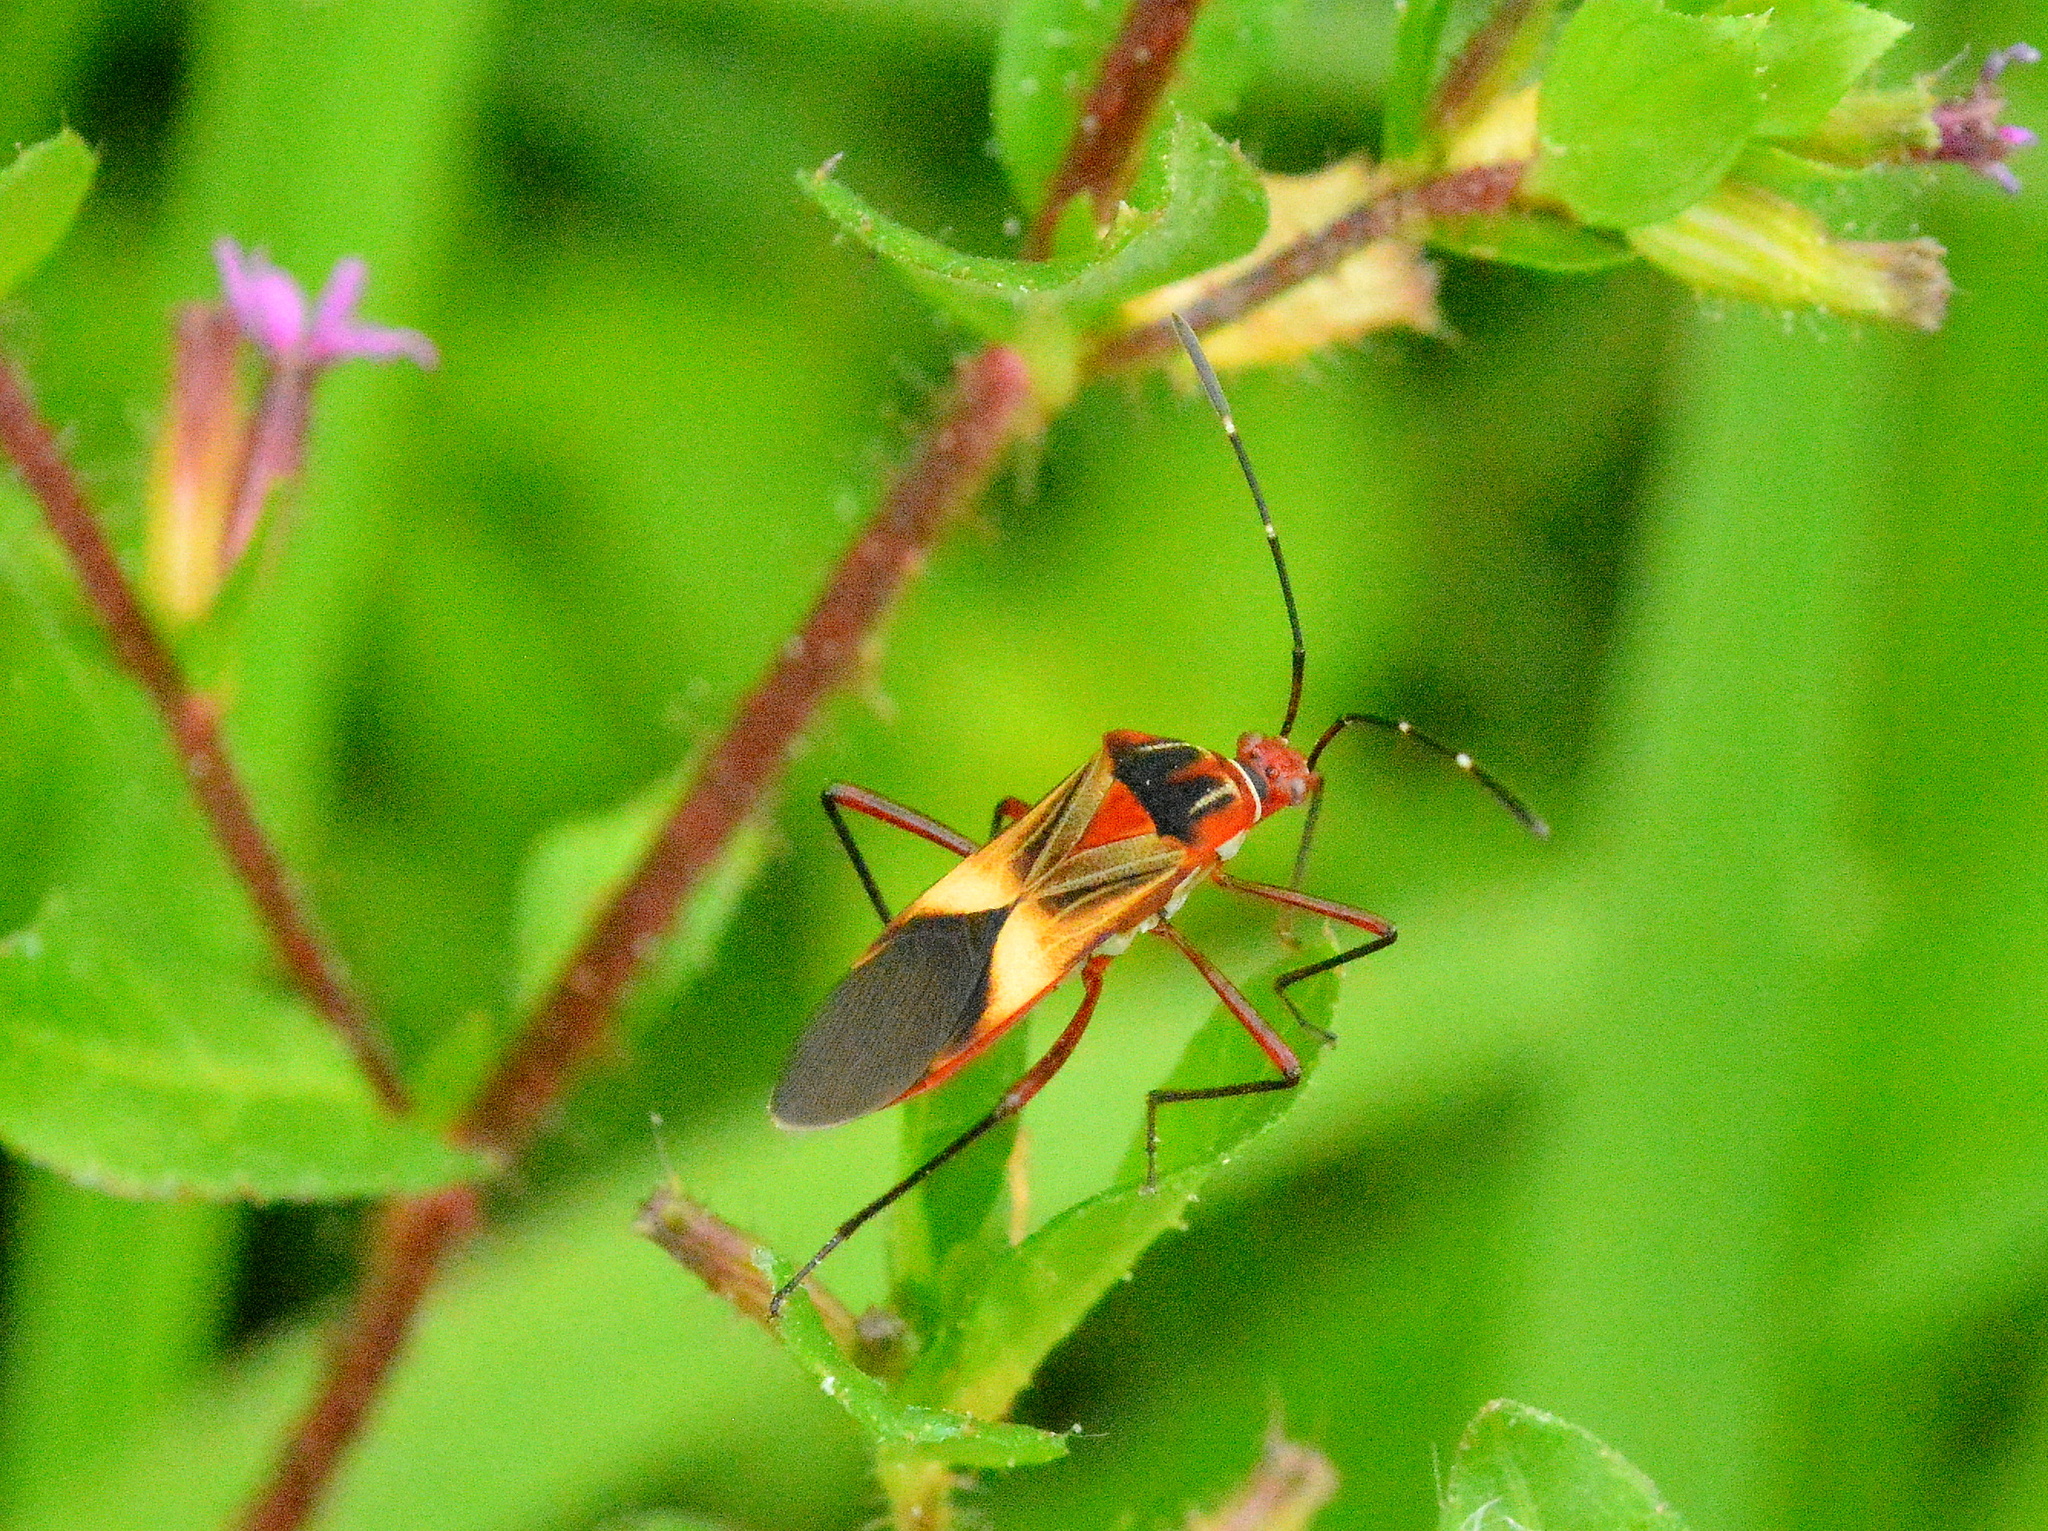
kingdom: Animalia
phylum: Arthropoda
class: Insecta
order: Hemiptera
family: Coreidae
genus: Hypselonotus
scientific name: Hypselonotus interruptus
